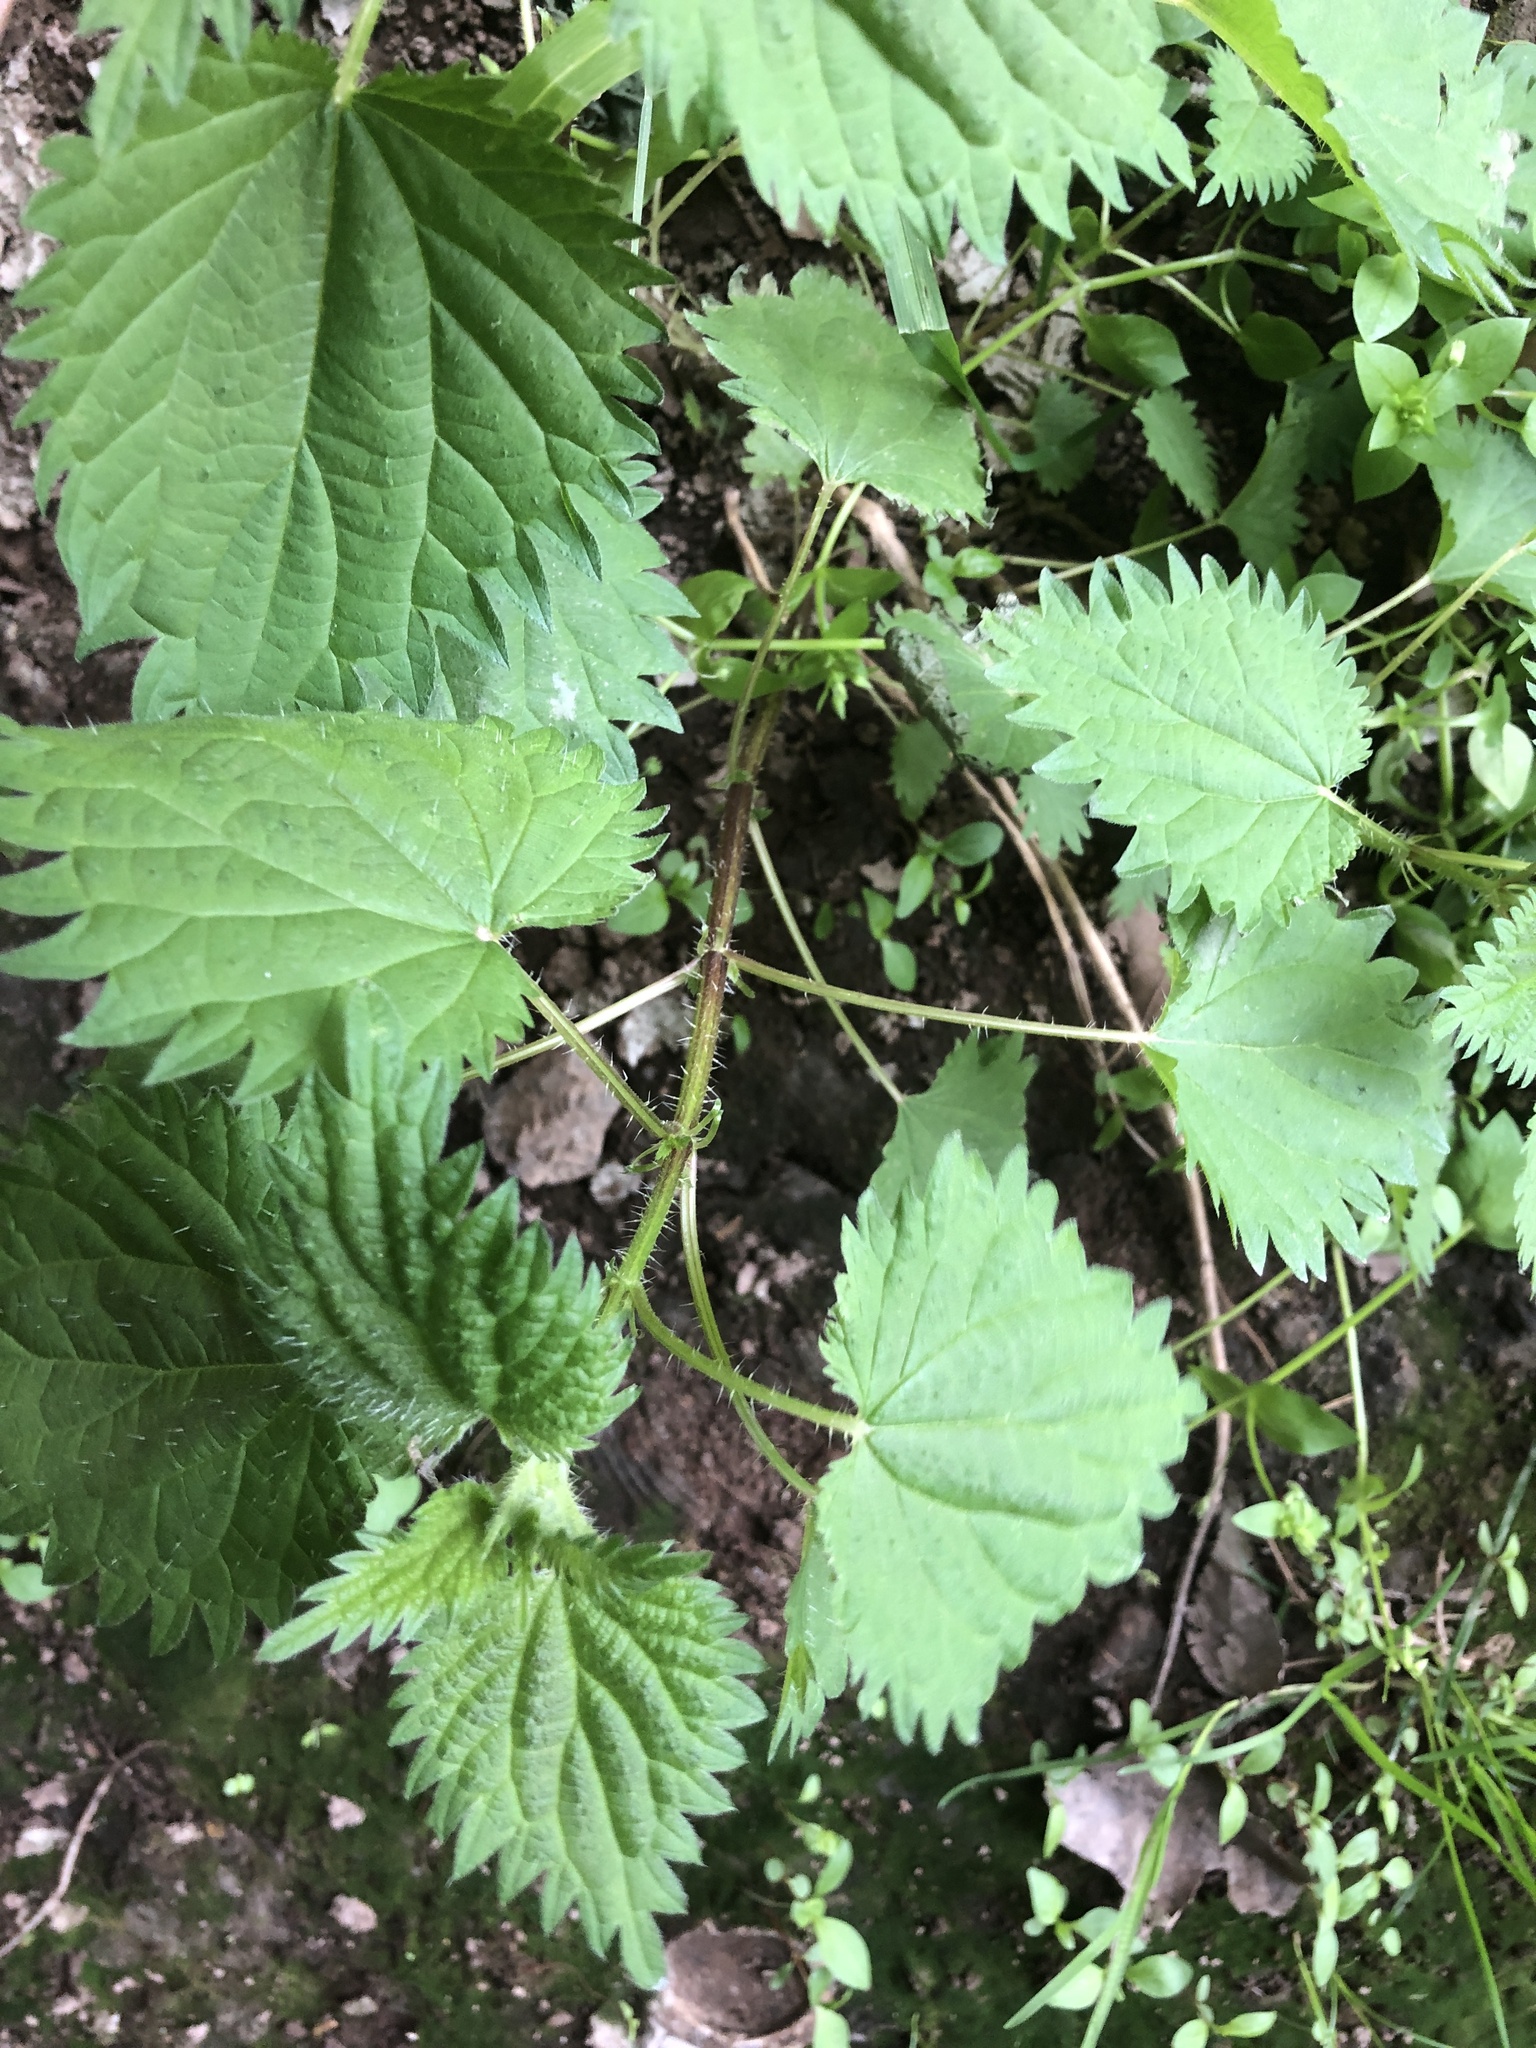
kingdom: Plantae
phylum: Tracheophyta
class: Magnoliopsida
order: Rosales
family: Urticaceae
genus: Urtica
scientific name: Urtica dioica
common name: Common nettle
